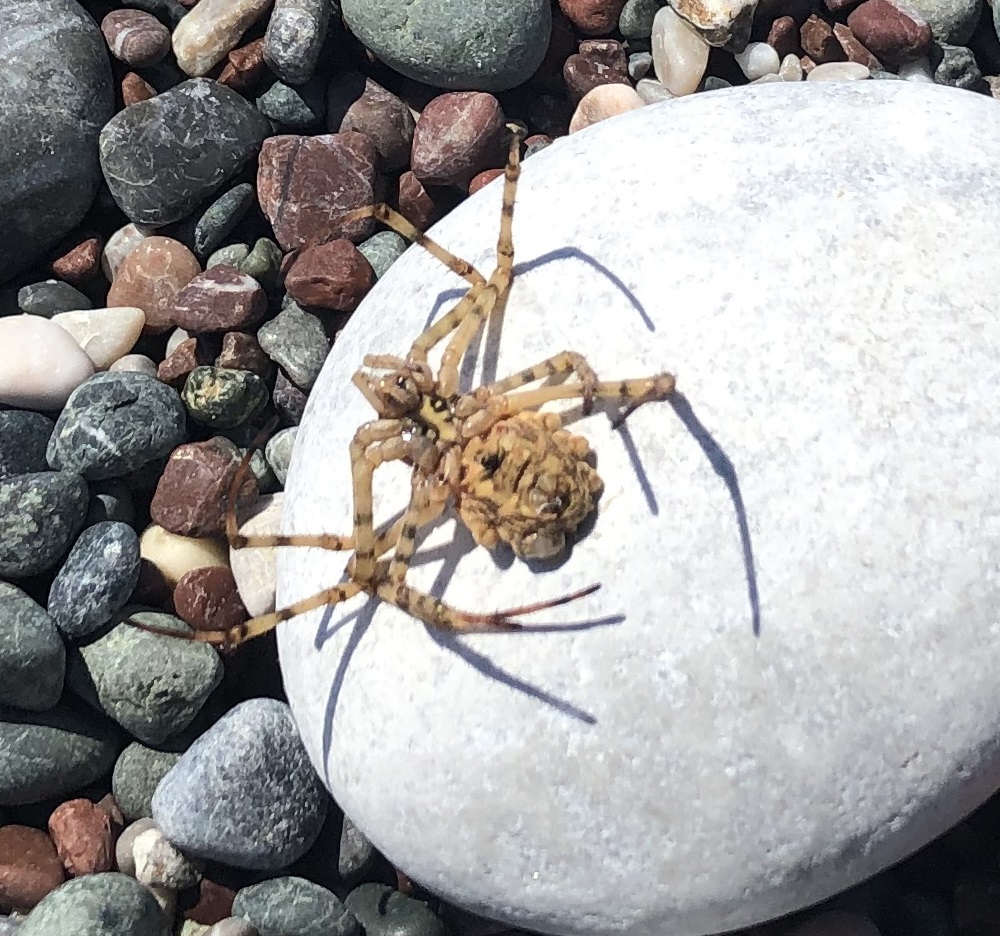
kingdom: Animalia
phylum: Arthropoda
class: Arachnida
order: Araneae
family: Araneidae
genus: Argiope
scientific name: Argiope lobata
